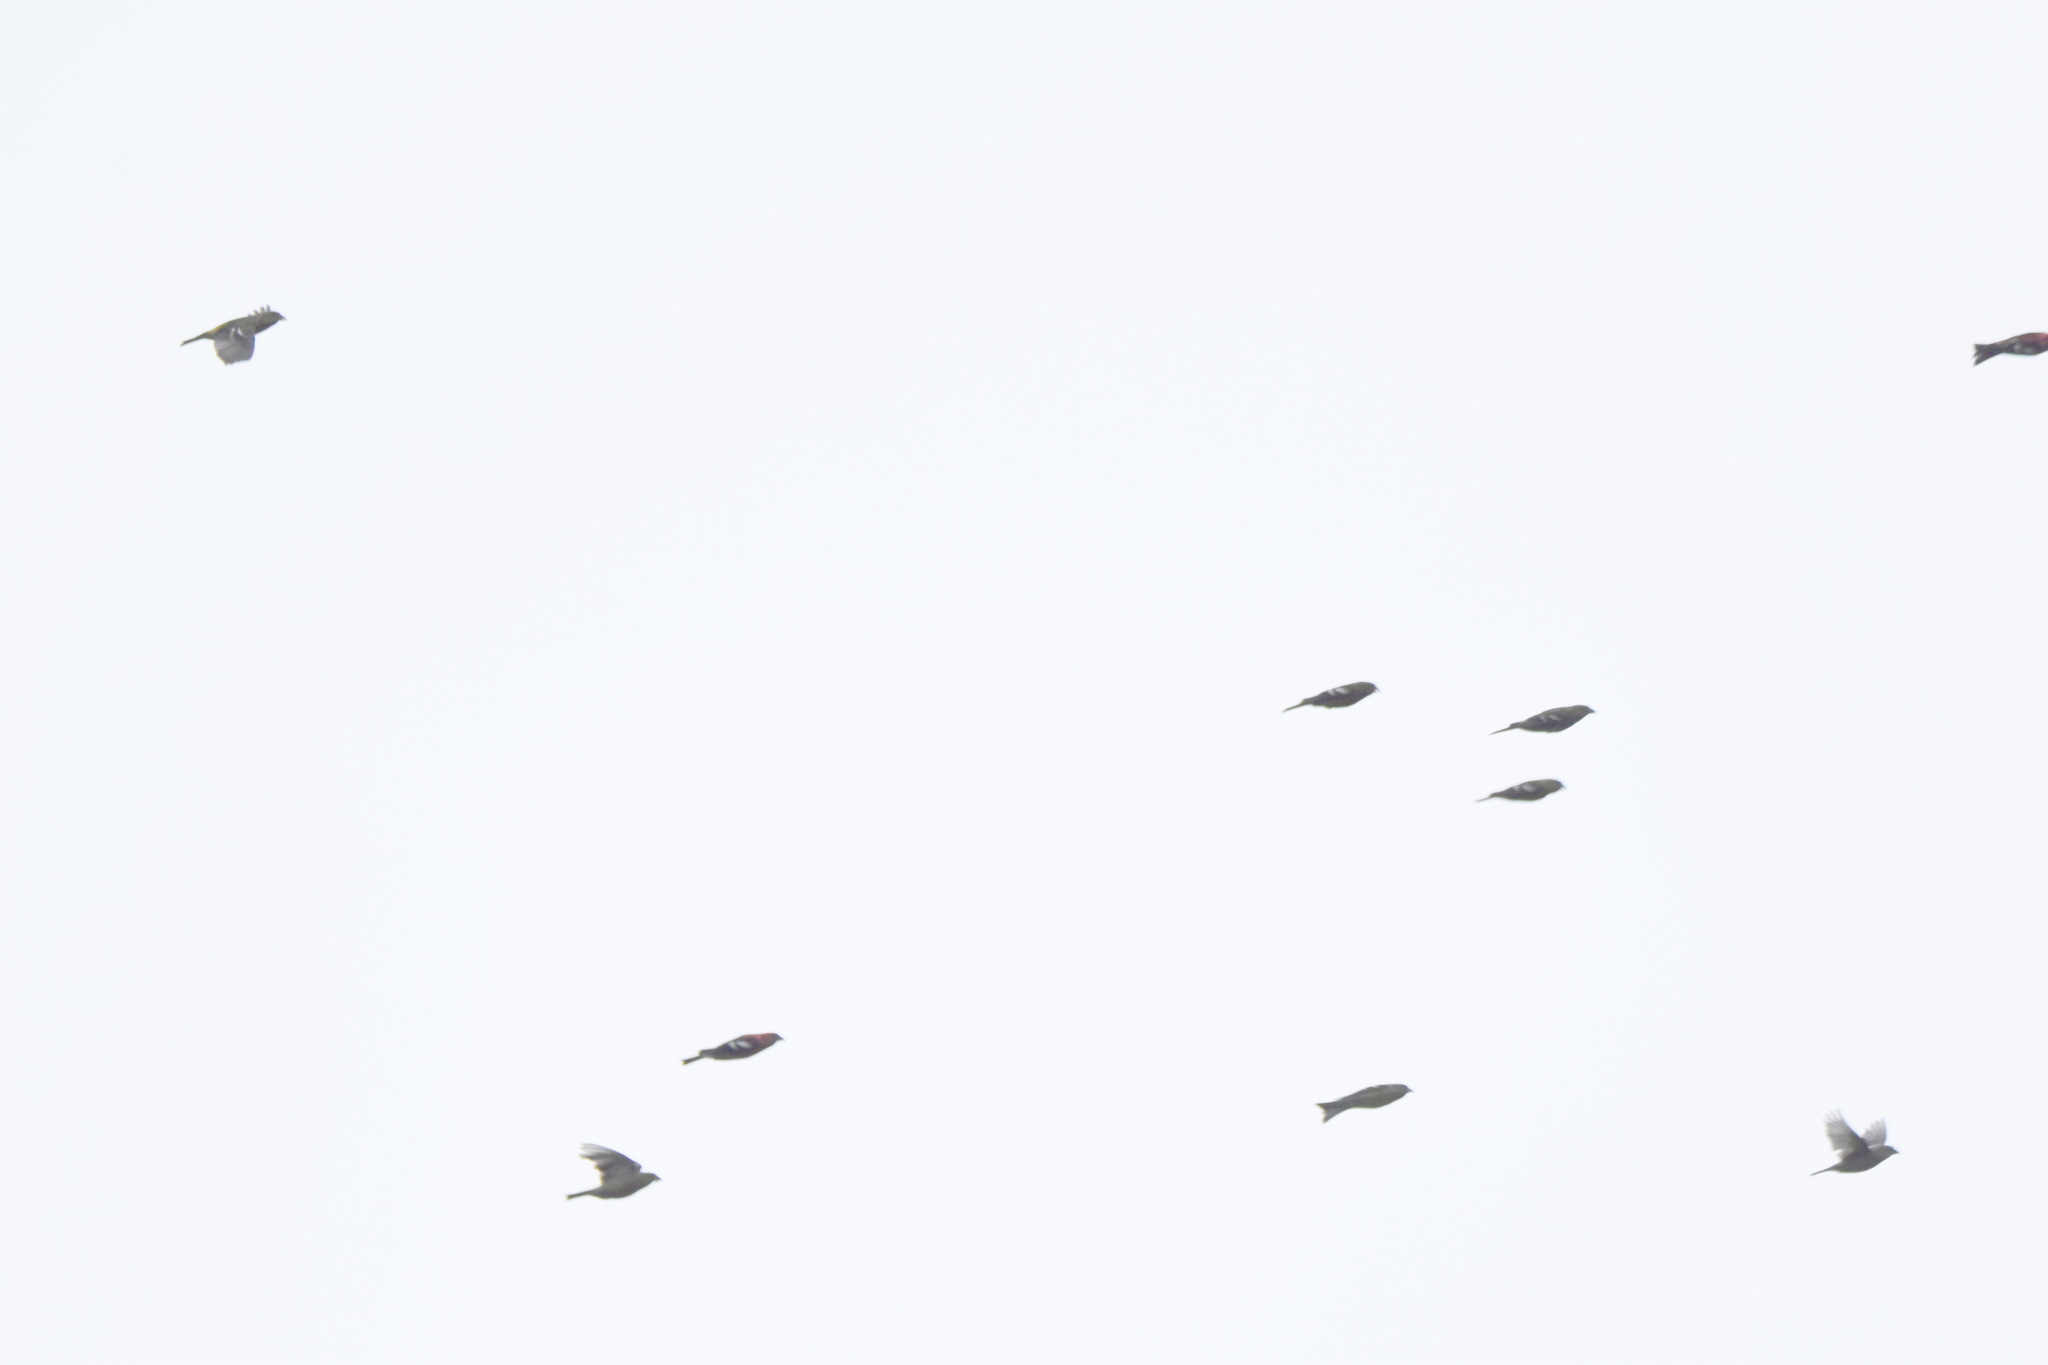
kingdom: Animalia
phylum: Chordata
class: Aves
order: Passeriformes
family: Fringillidae
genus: Loxia
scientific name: Loxia leucoptera
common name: Two-barred crossbill
